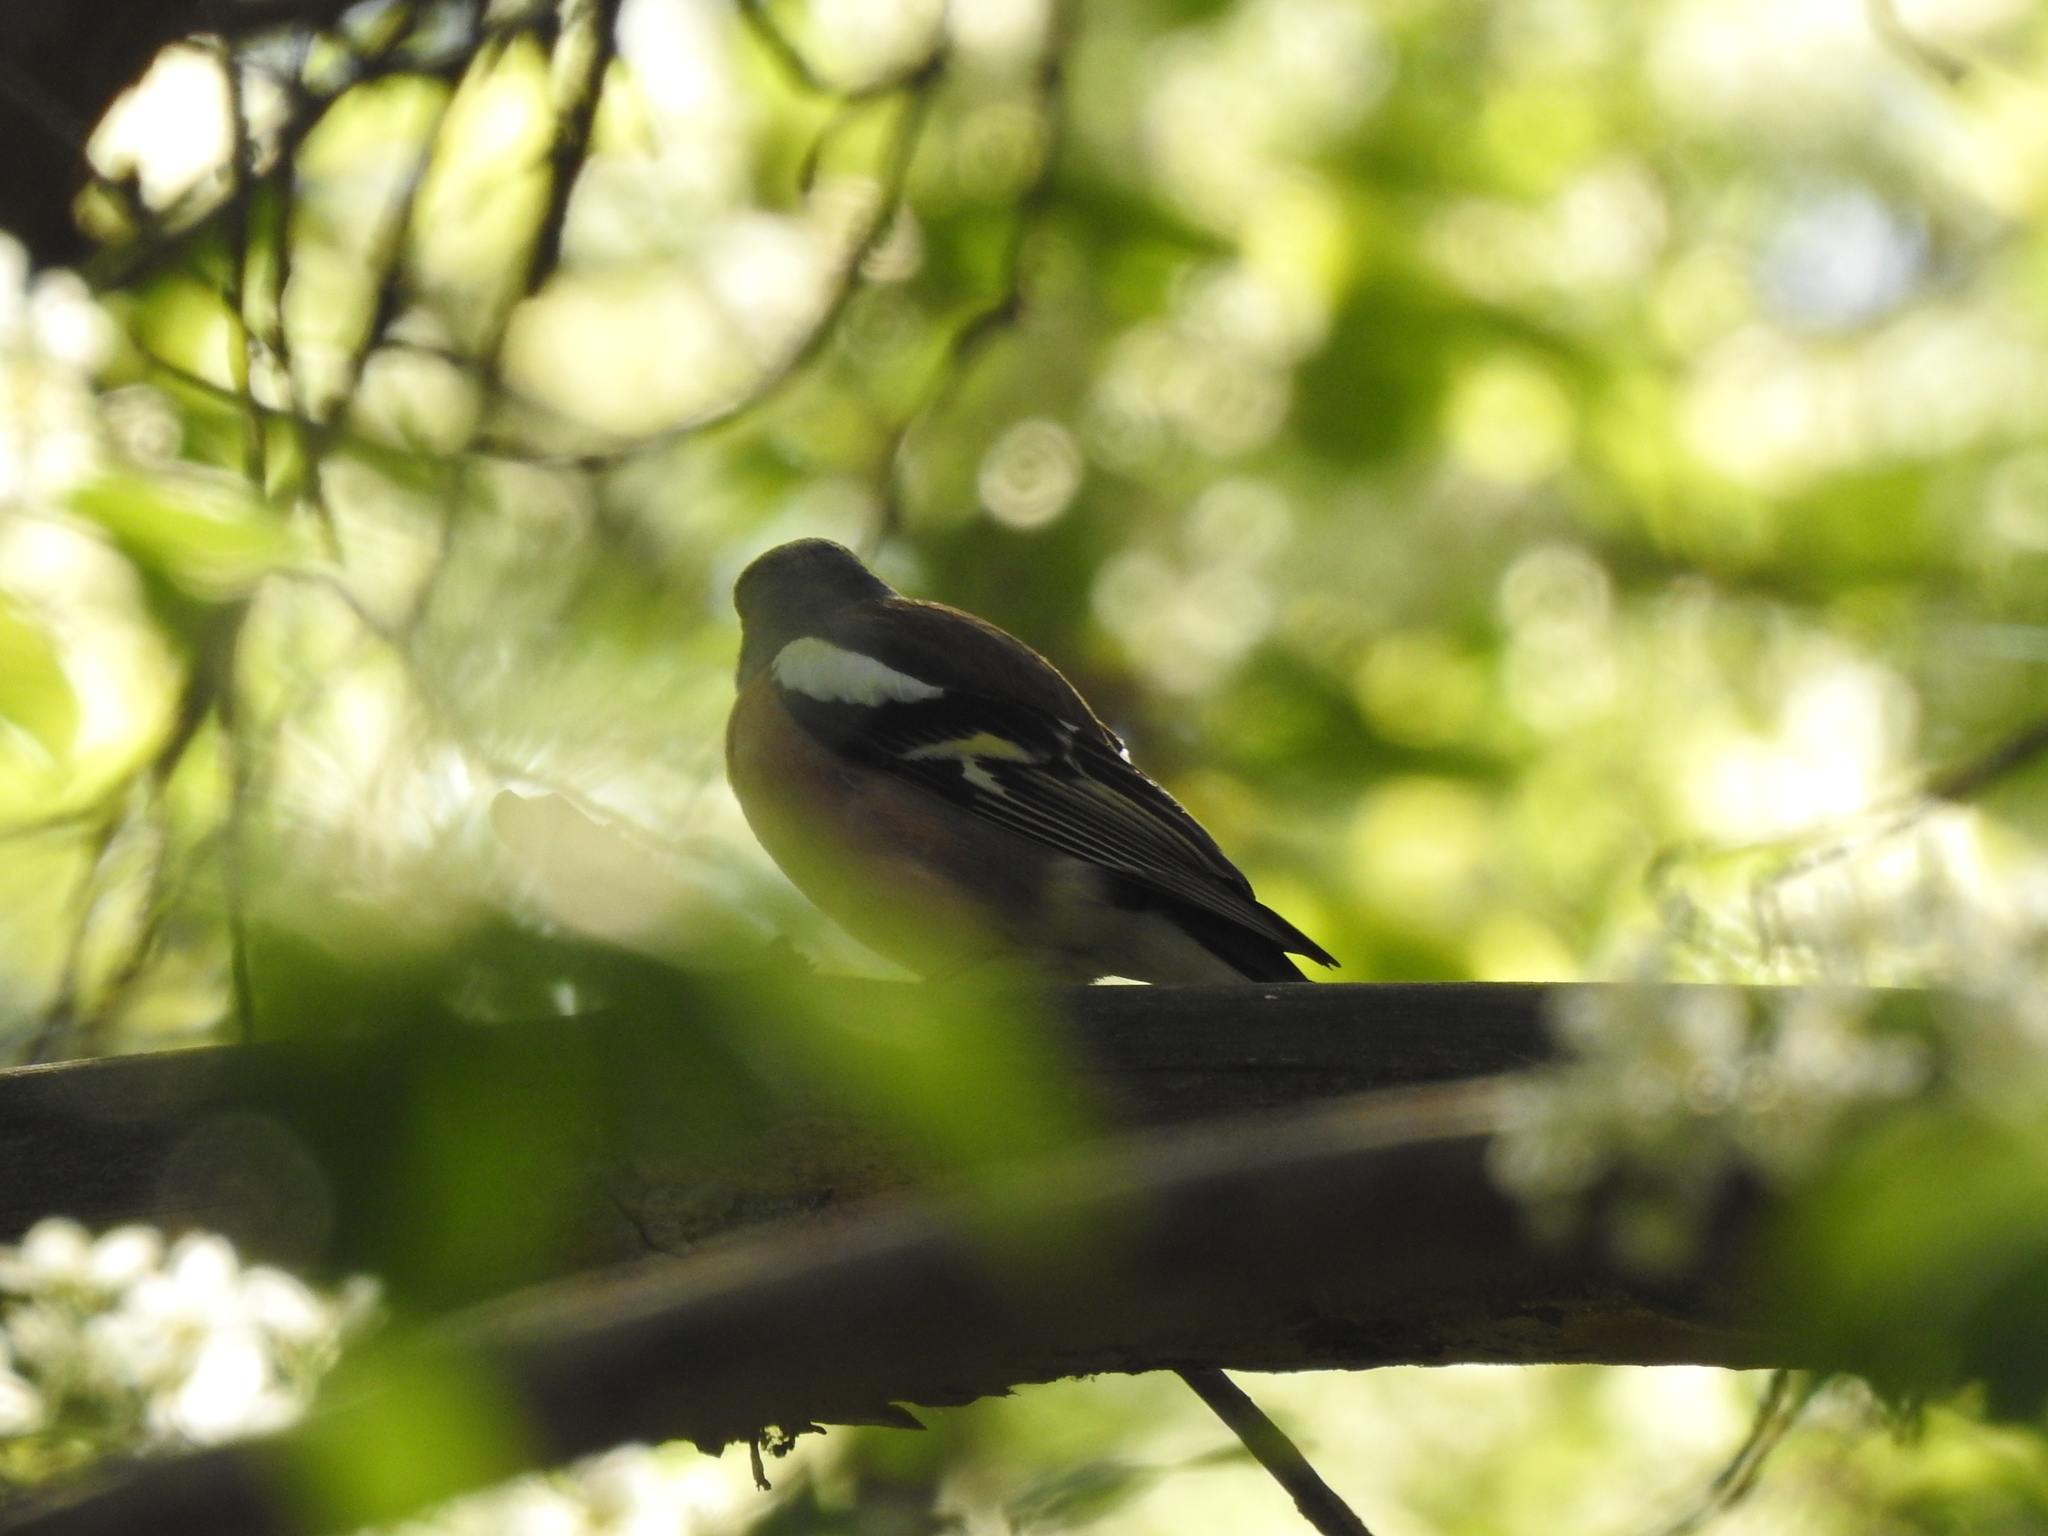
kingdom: Animalia
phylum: Chordata
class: Aves
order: Passeriformes
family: Fringillidae
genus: Fringilla
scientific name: Fringilla coelebs
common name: Common chaffinch
